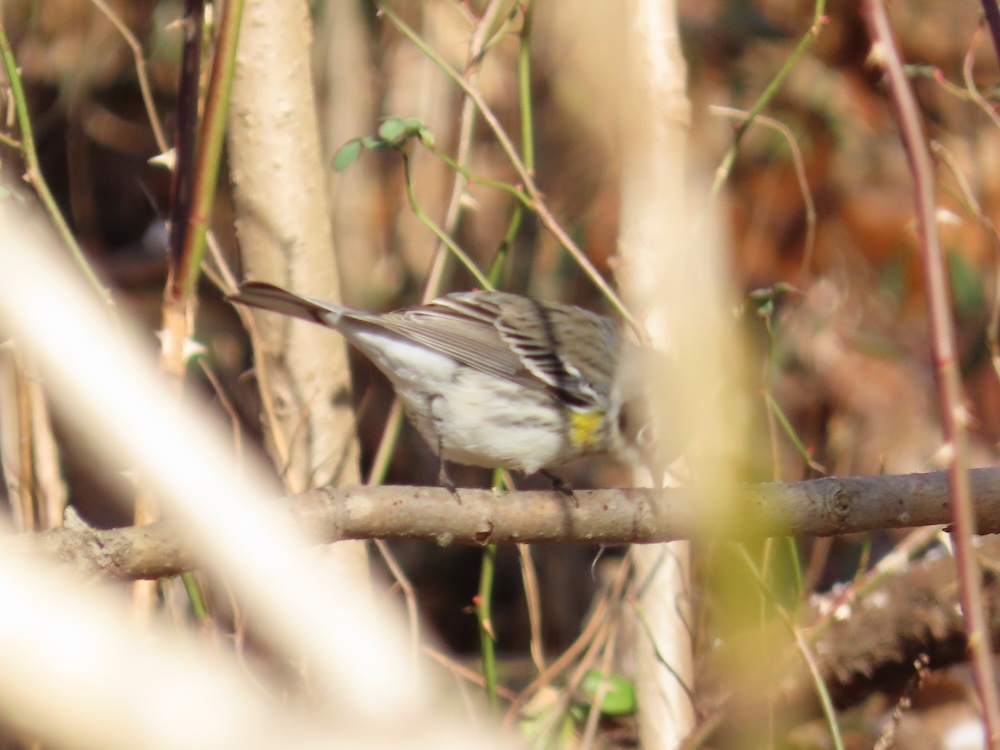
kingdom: Animalia
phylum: Chordata
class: Aves
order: Passeriformes
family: Parulidae
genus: Setophaga
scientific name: Setophaga coronata
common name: Myrtle warbler
